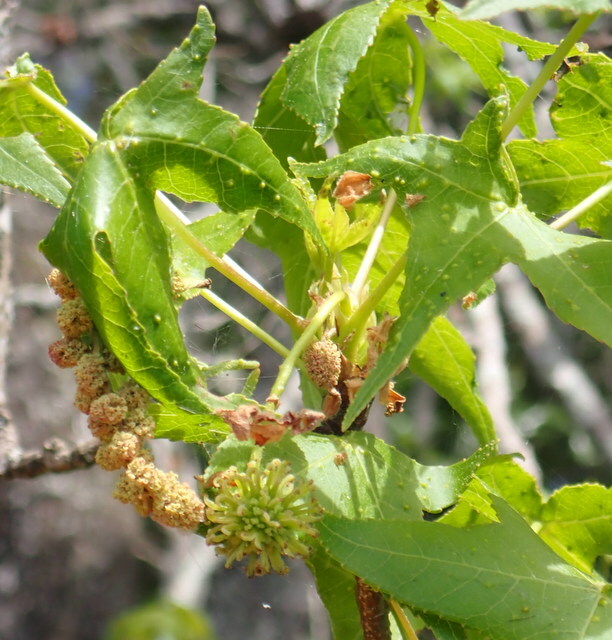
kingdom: Plantae
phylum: Tracheophyta
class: Magnoliopsida
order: Saxifragales
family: Altingiaceae
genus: Liquidambar
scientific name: Liquidambar styraciflua
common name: Sweet gum
